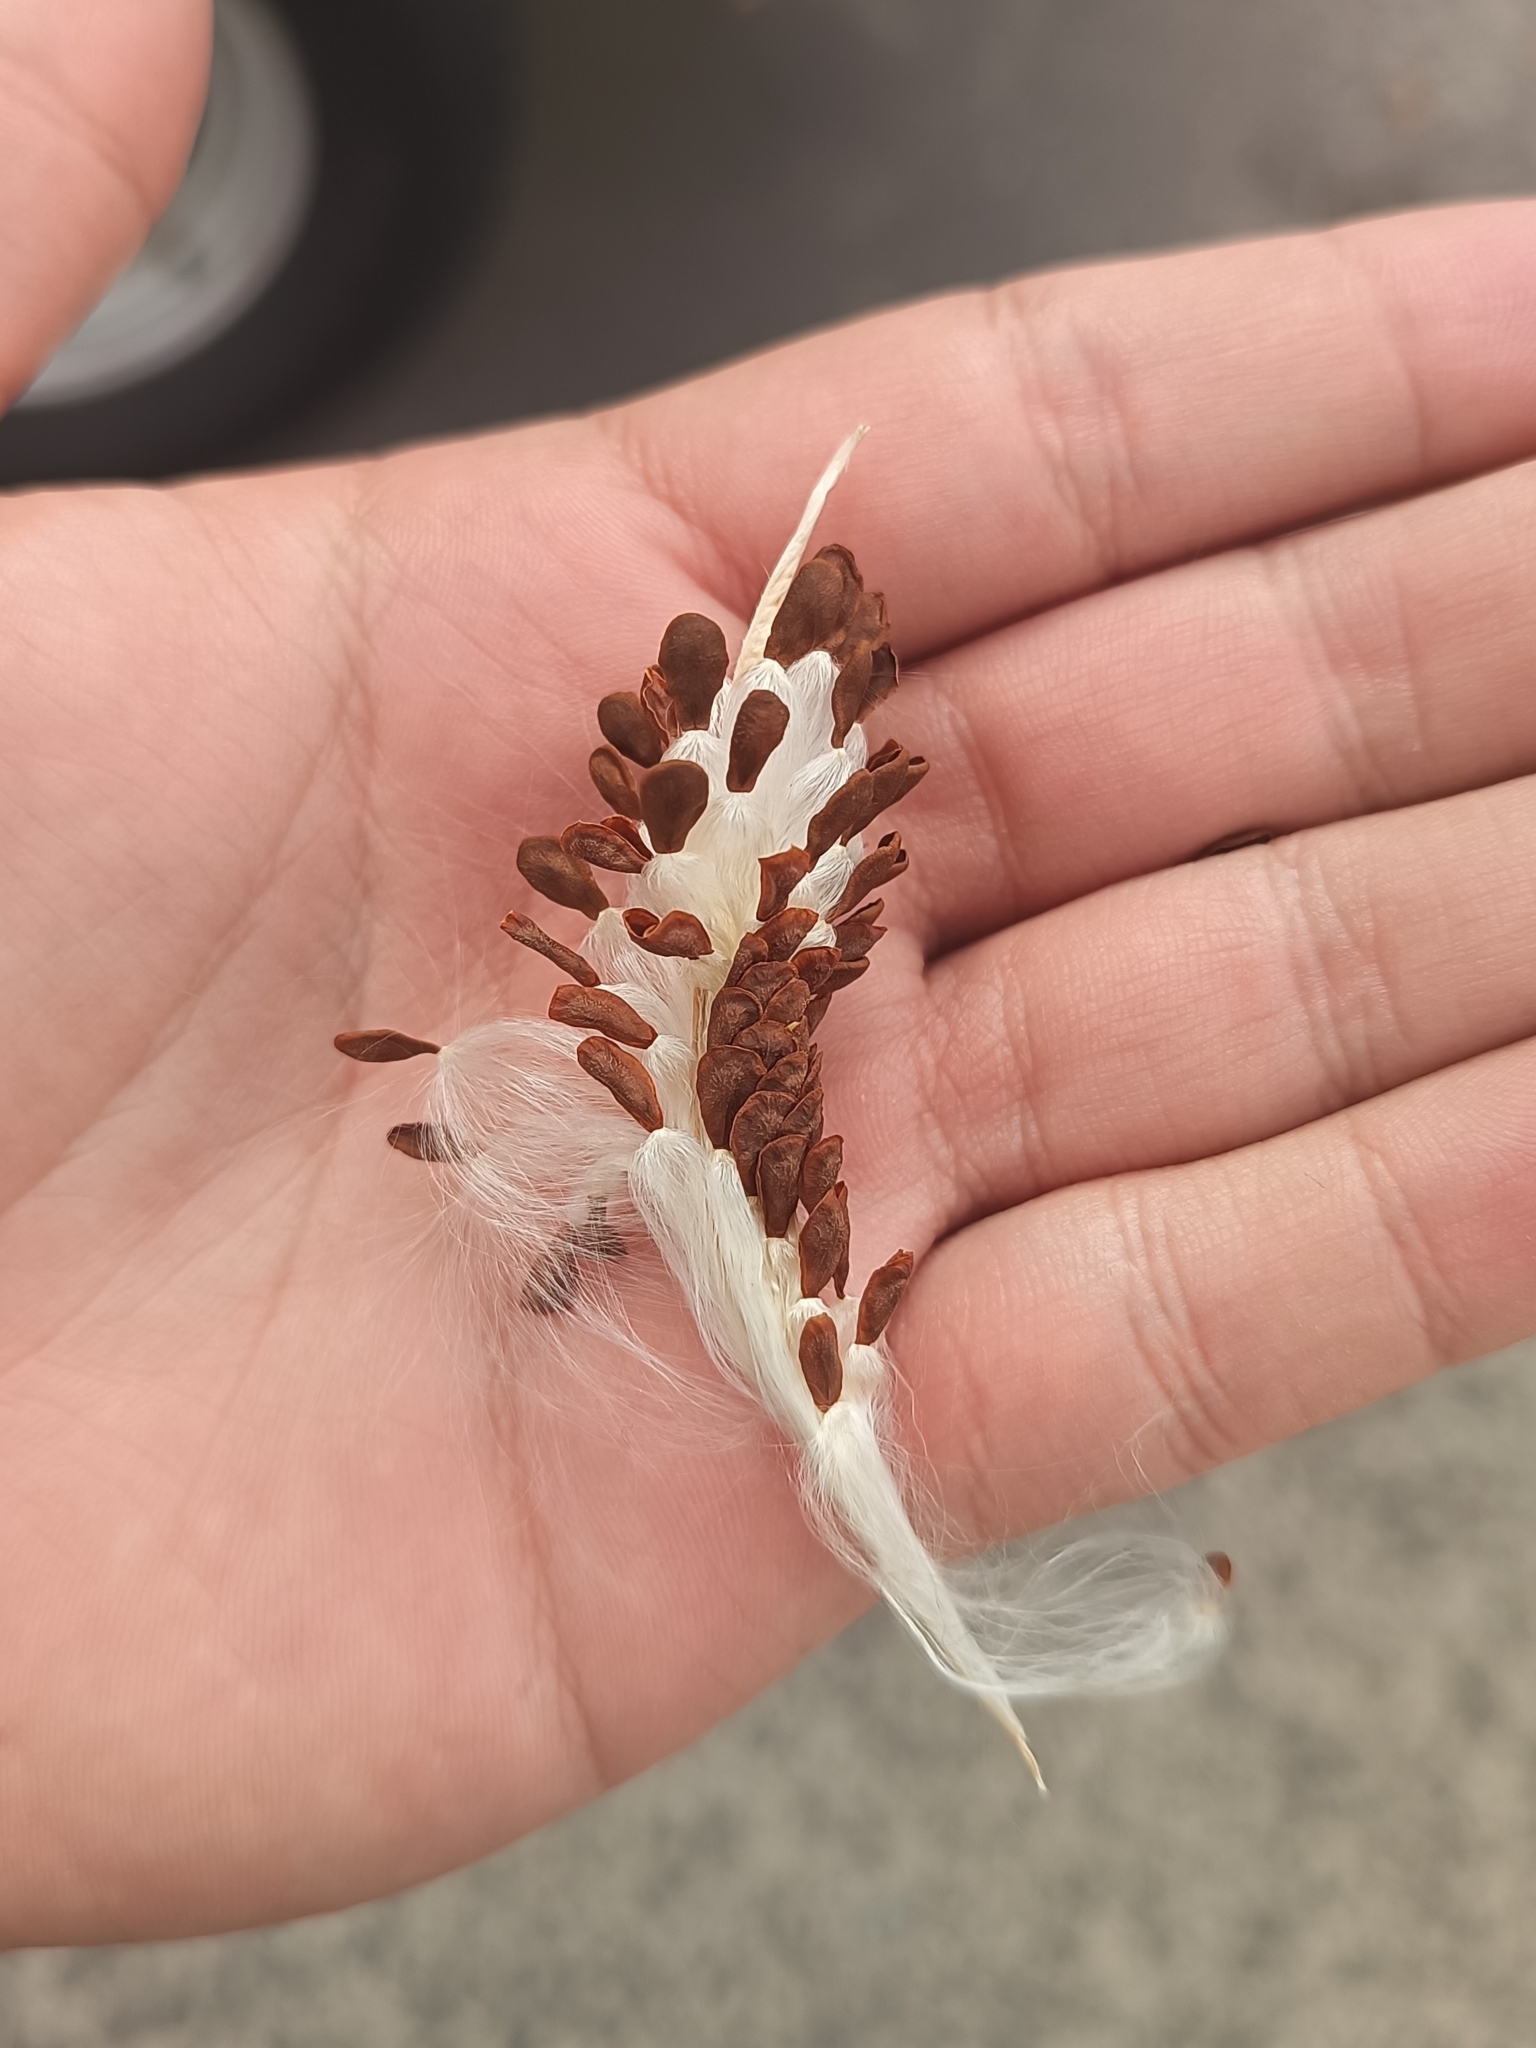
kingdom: Plantae
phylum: Tracheophyta
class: Magnoliopsida
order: Gentianales
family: Apocynaceae
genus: Asclepias
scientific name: Asclepias curassavica
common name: Bloodflower
